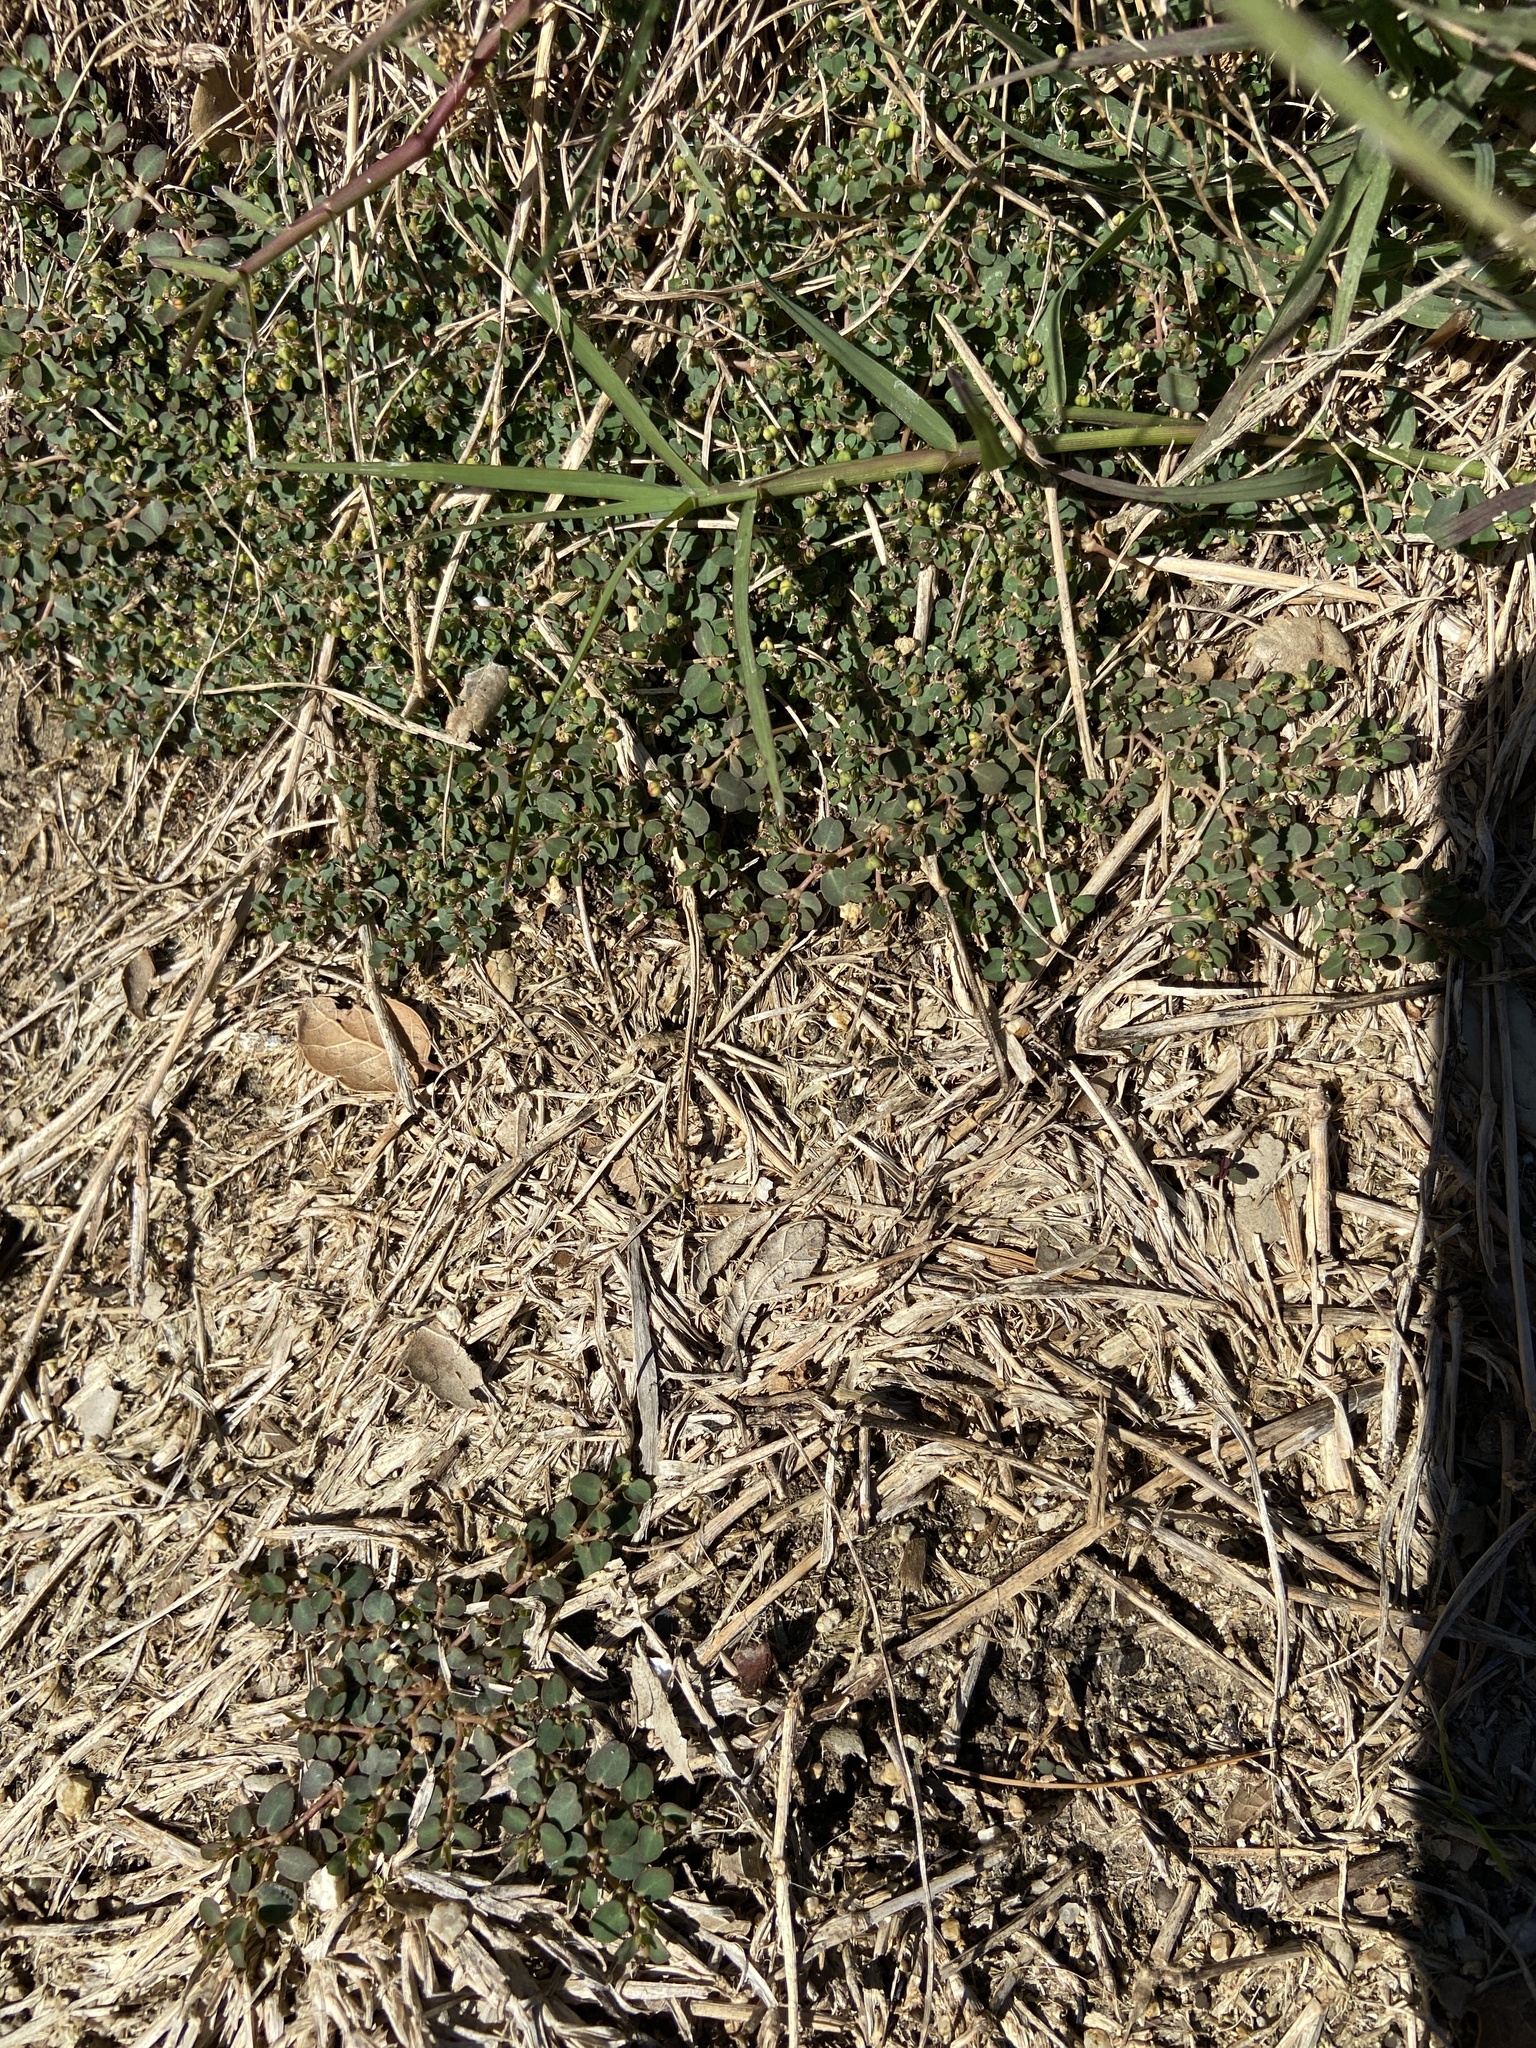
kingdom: Plantae
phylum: Tracheophyta
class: Magnoliopsida
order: Malpighiales
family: Euphorbiaceae
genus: Euphorbia
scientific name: Euphorbia serpens
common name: Matted sandmat
